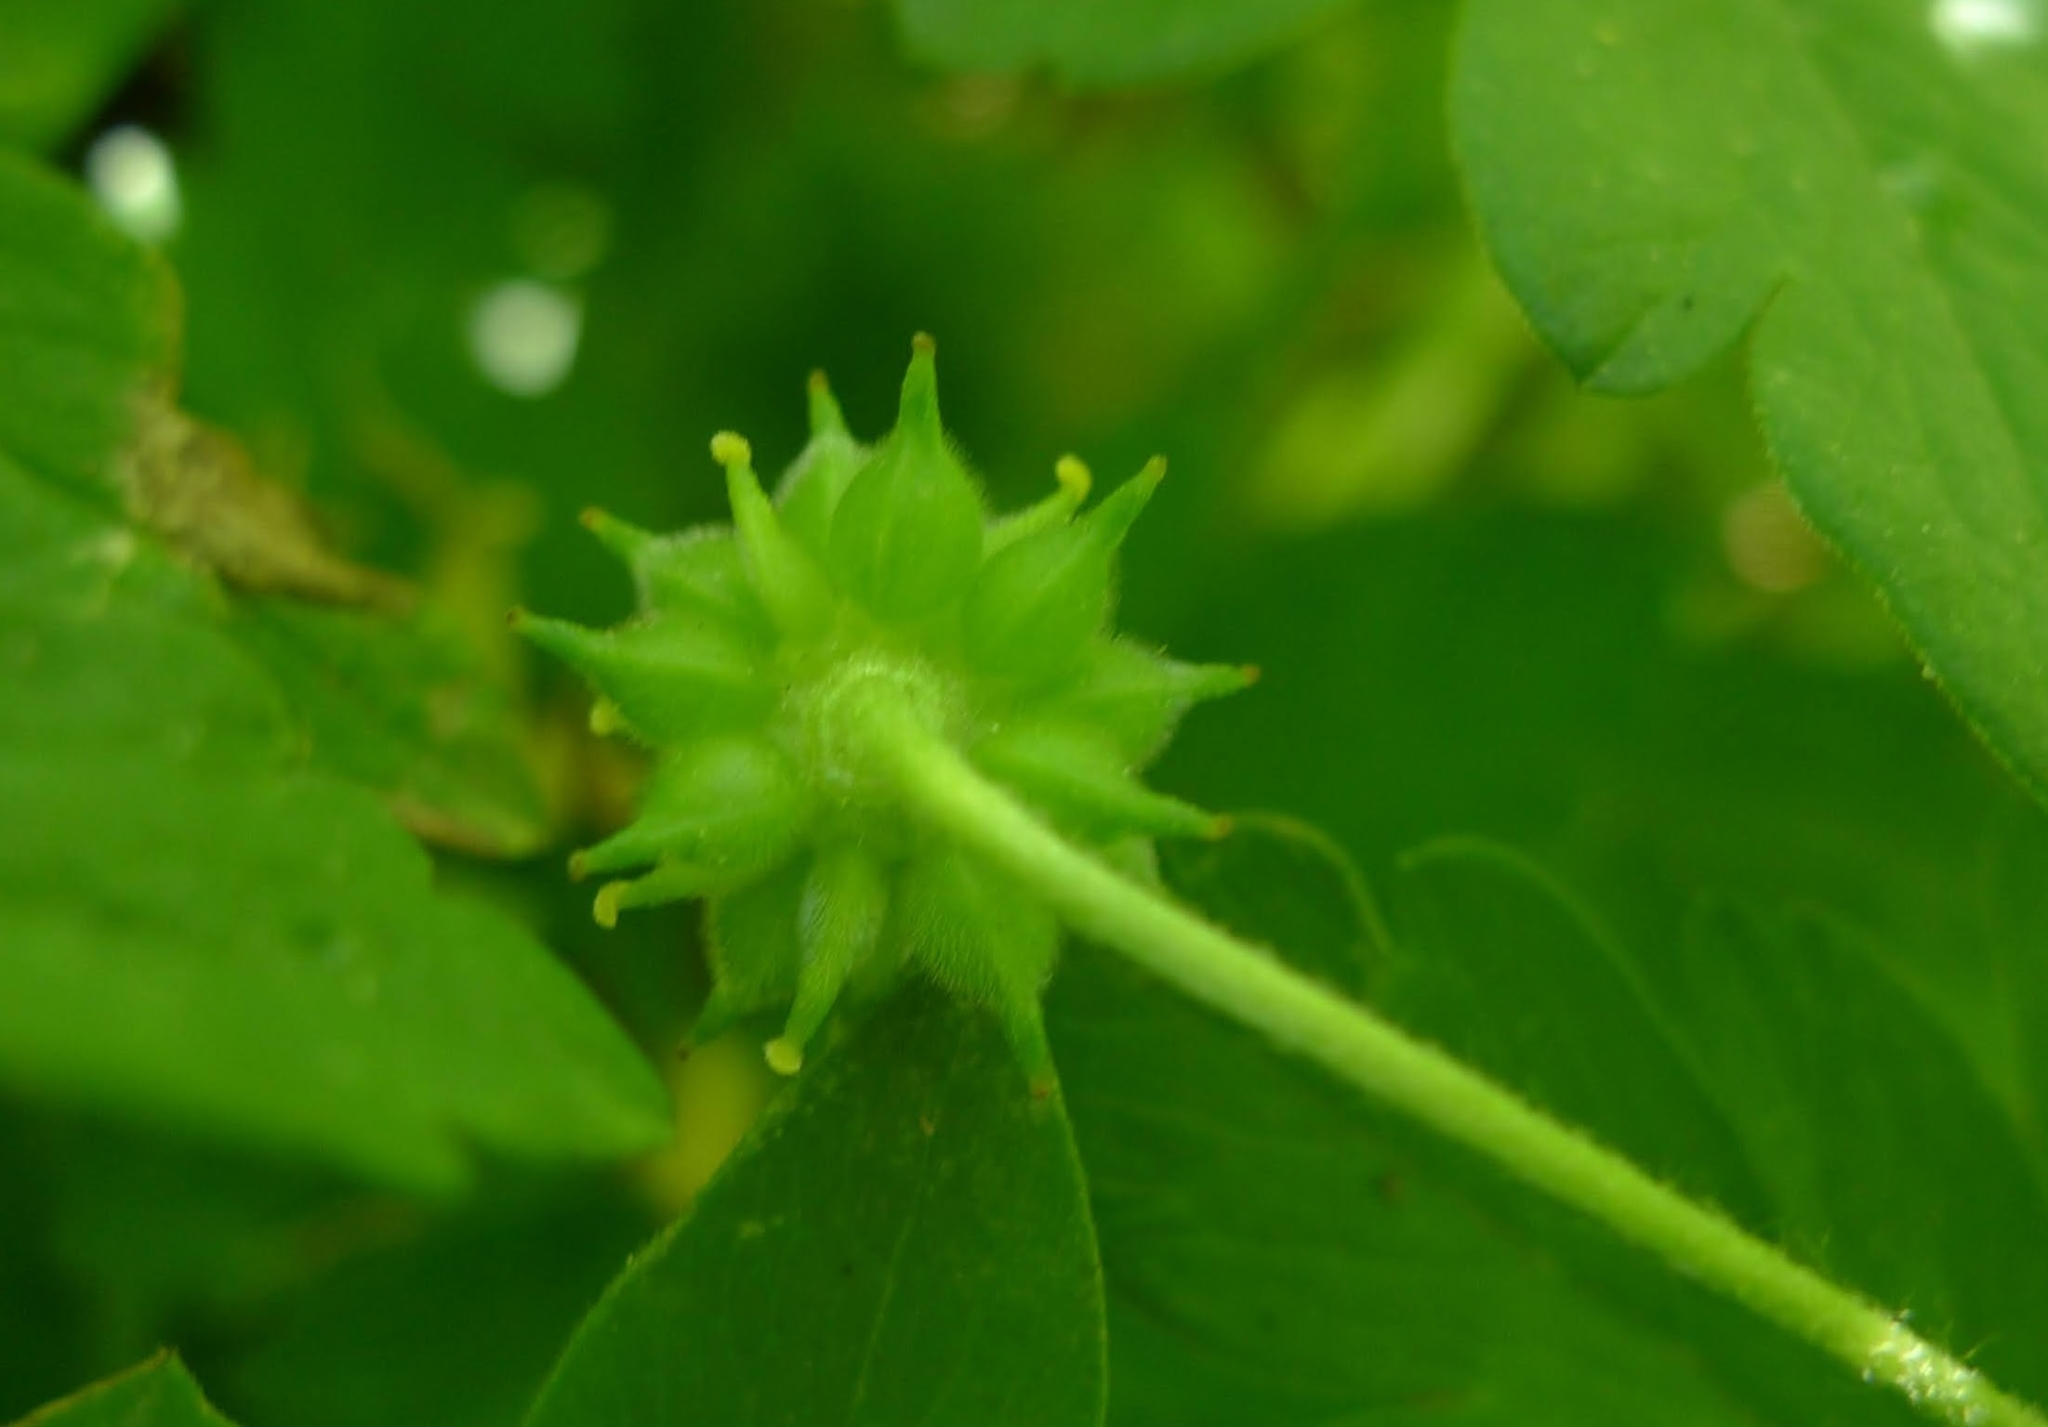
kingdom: Plantae
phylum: Tracheophyta
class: Magnoliopsida
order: Ranunculales
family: Ranunculaceae
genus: Anemone
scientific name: Anemone ranunculoides
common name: Yellow anemone
